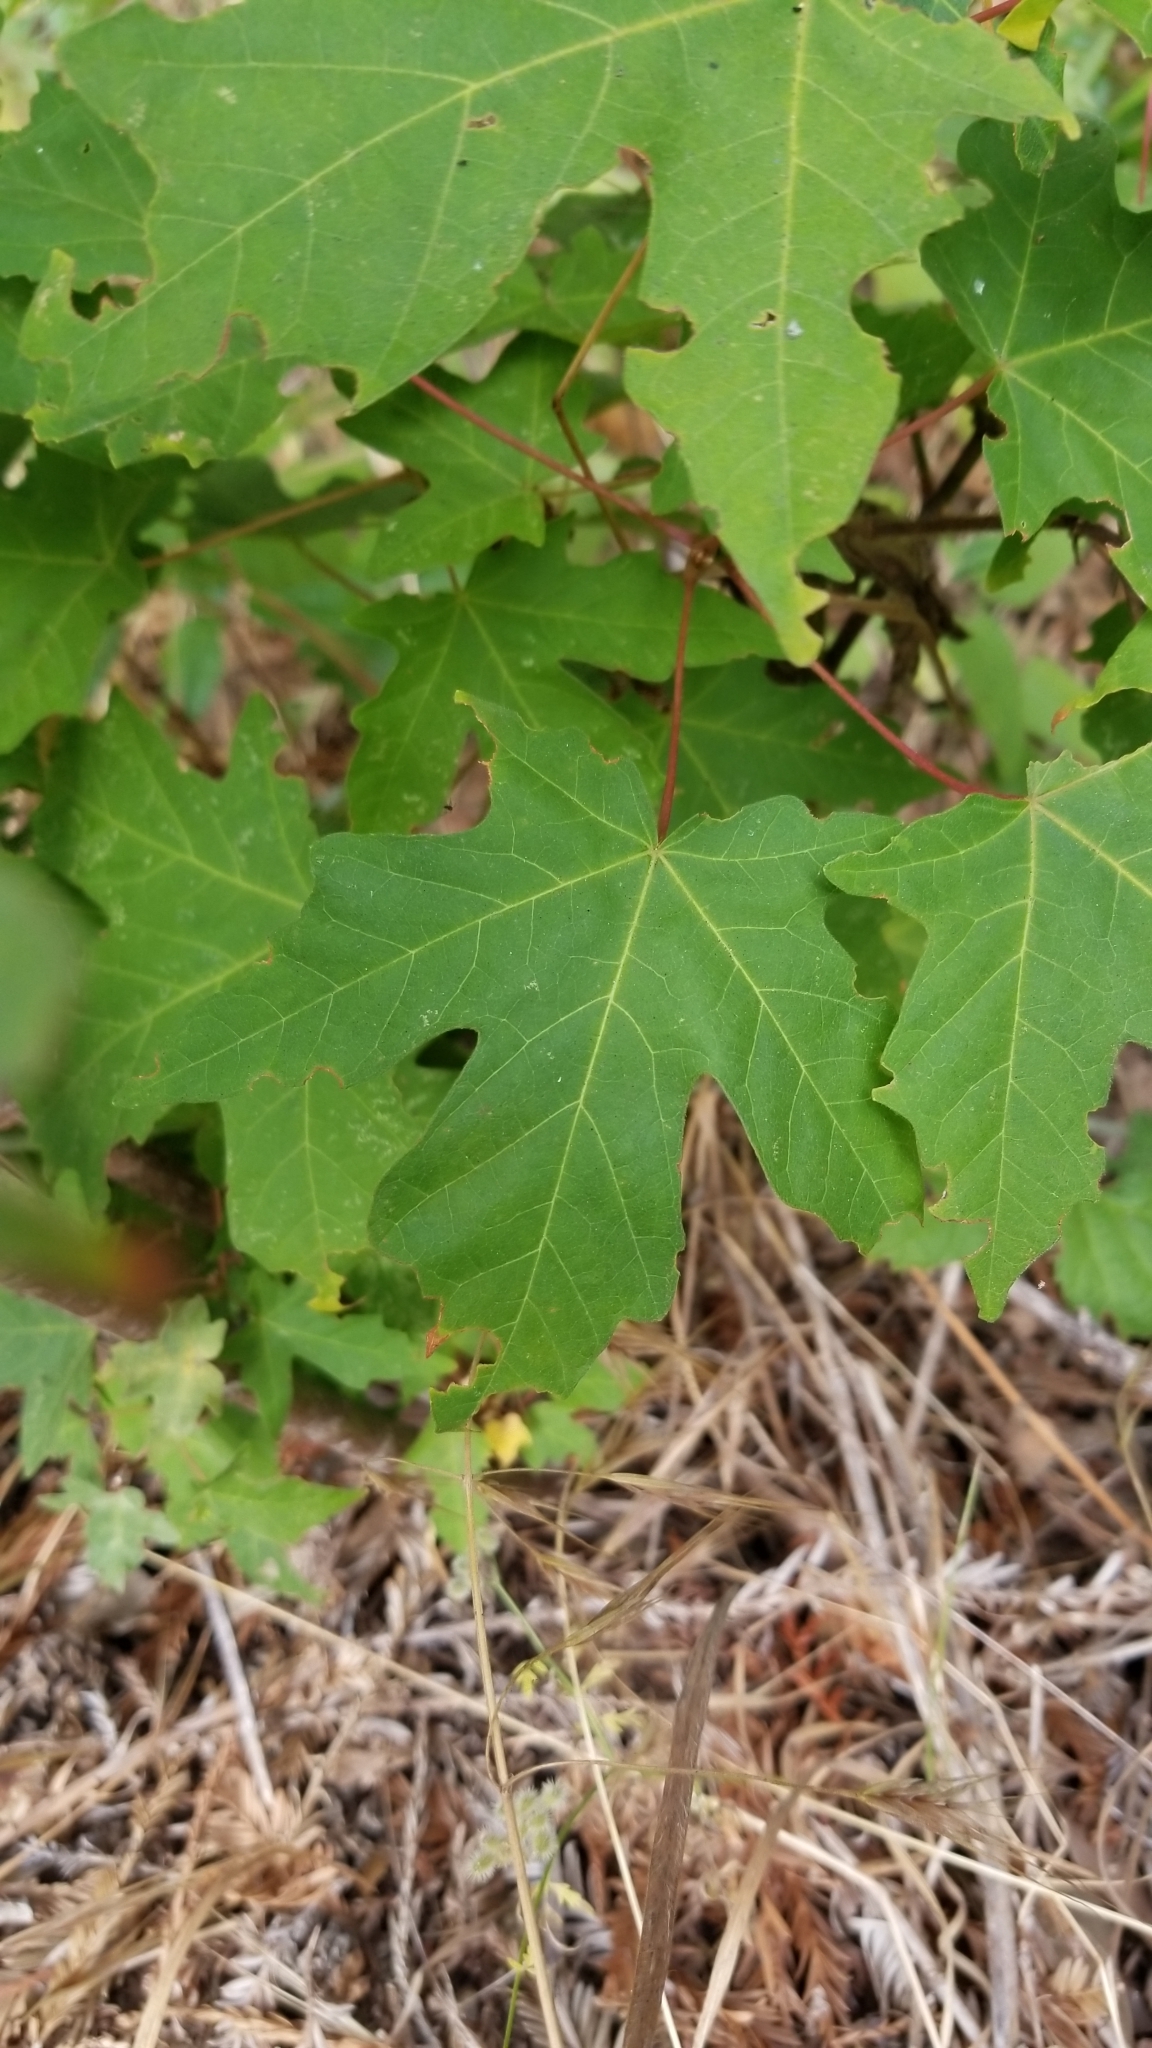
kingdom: Plantae
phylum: Tracheophyta
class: Magnoliopsida
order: Sapindales
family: Sapindaceae
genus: Acer
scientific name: Acer macrophyllum
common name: Oregon maple
